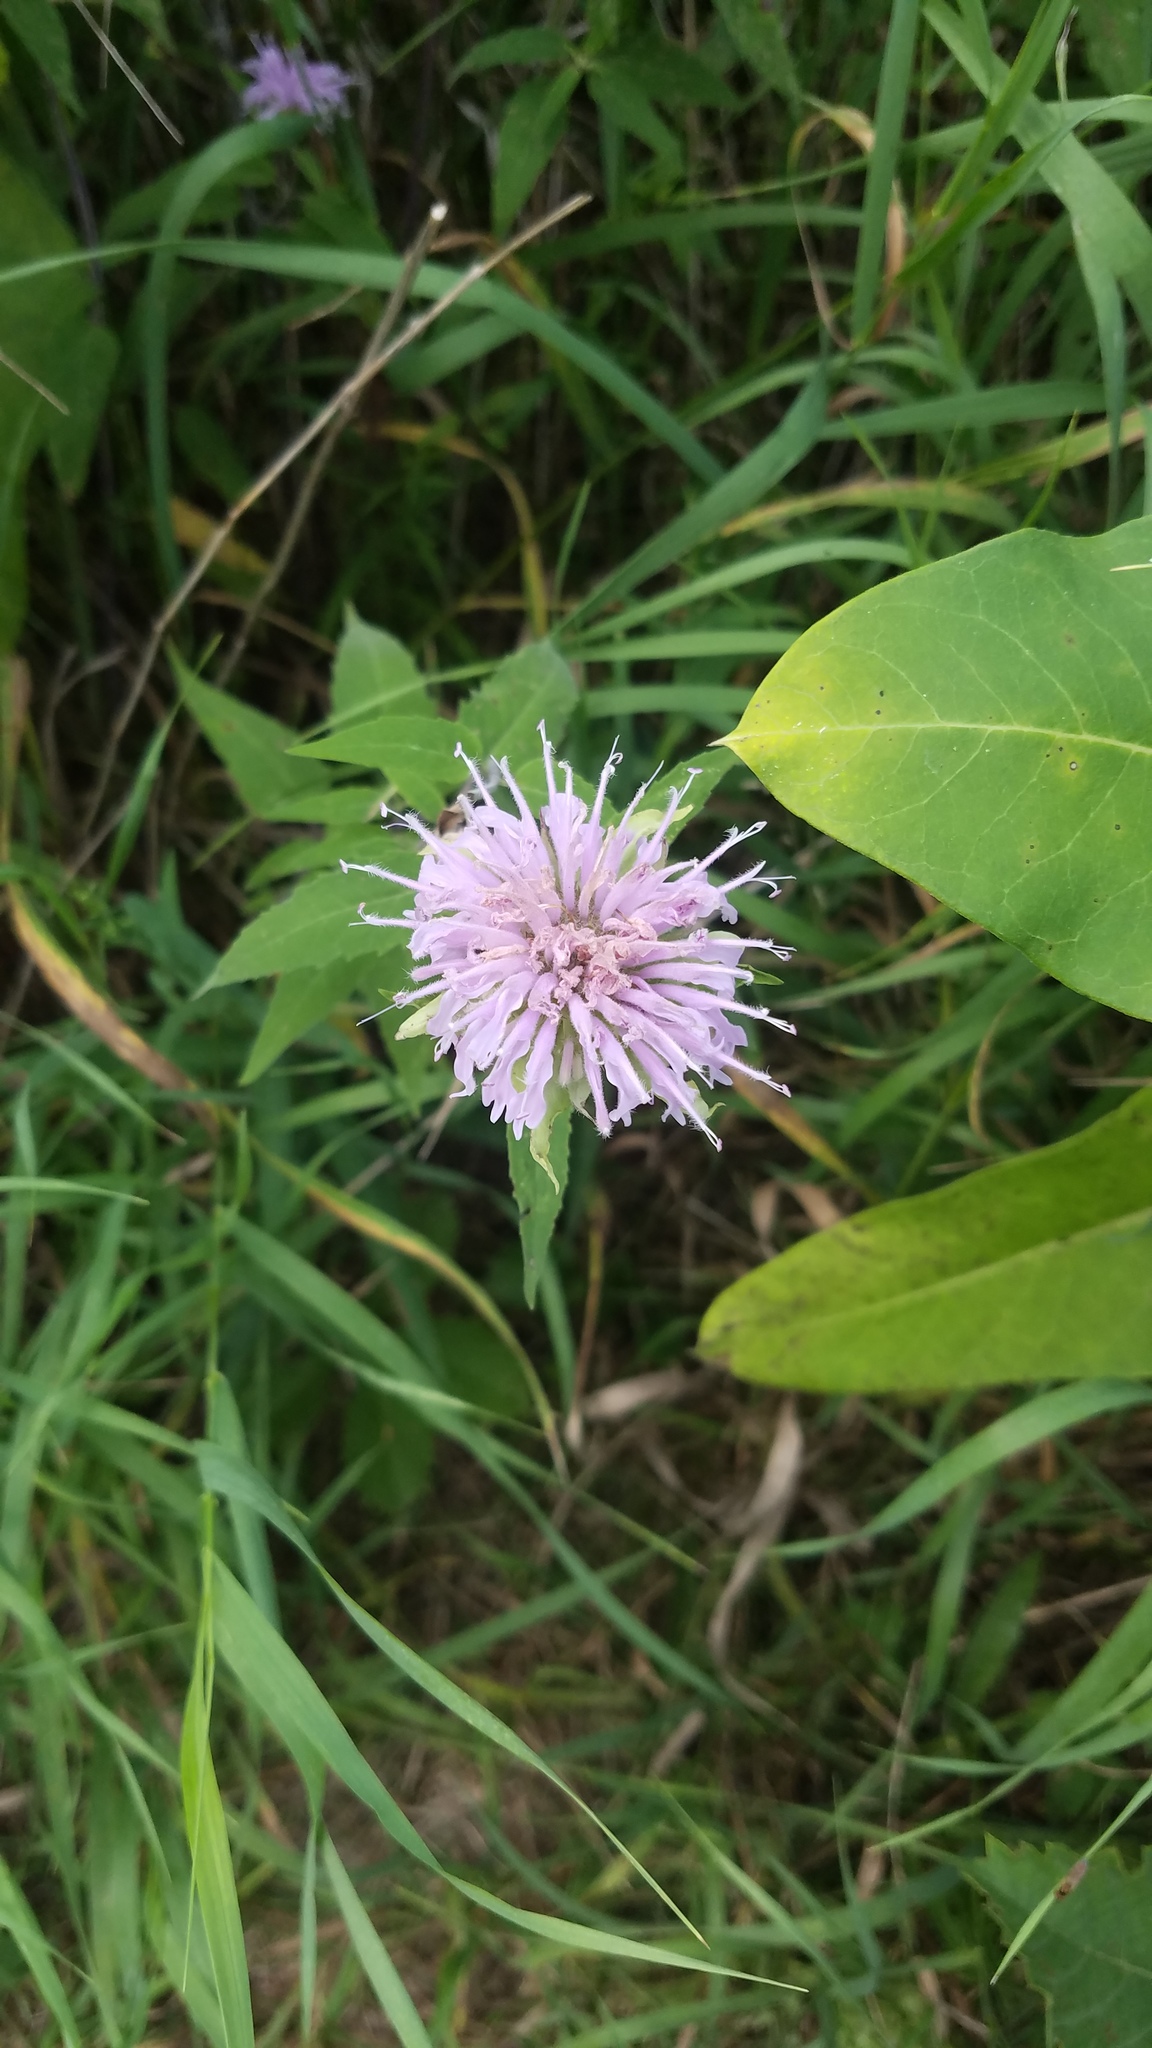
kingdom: Plantae
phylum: Tracheophyta
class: Magnoliopsida
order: Lamiales
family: Lamiaceae
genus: Monarda
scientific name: Monarda fistulosa
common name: Purple beebalm
